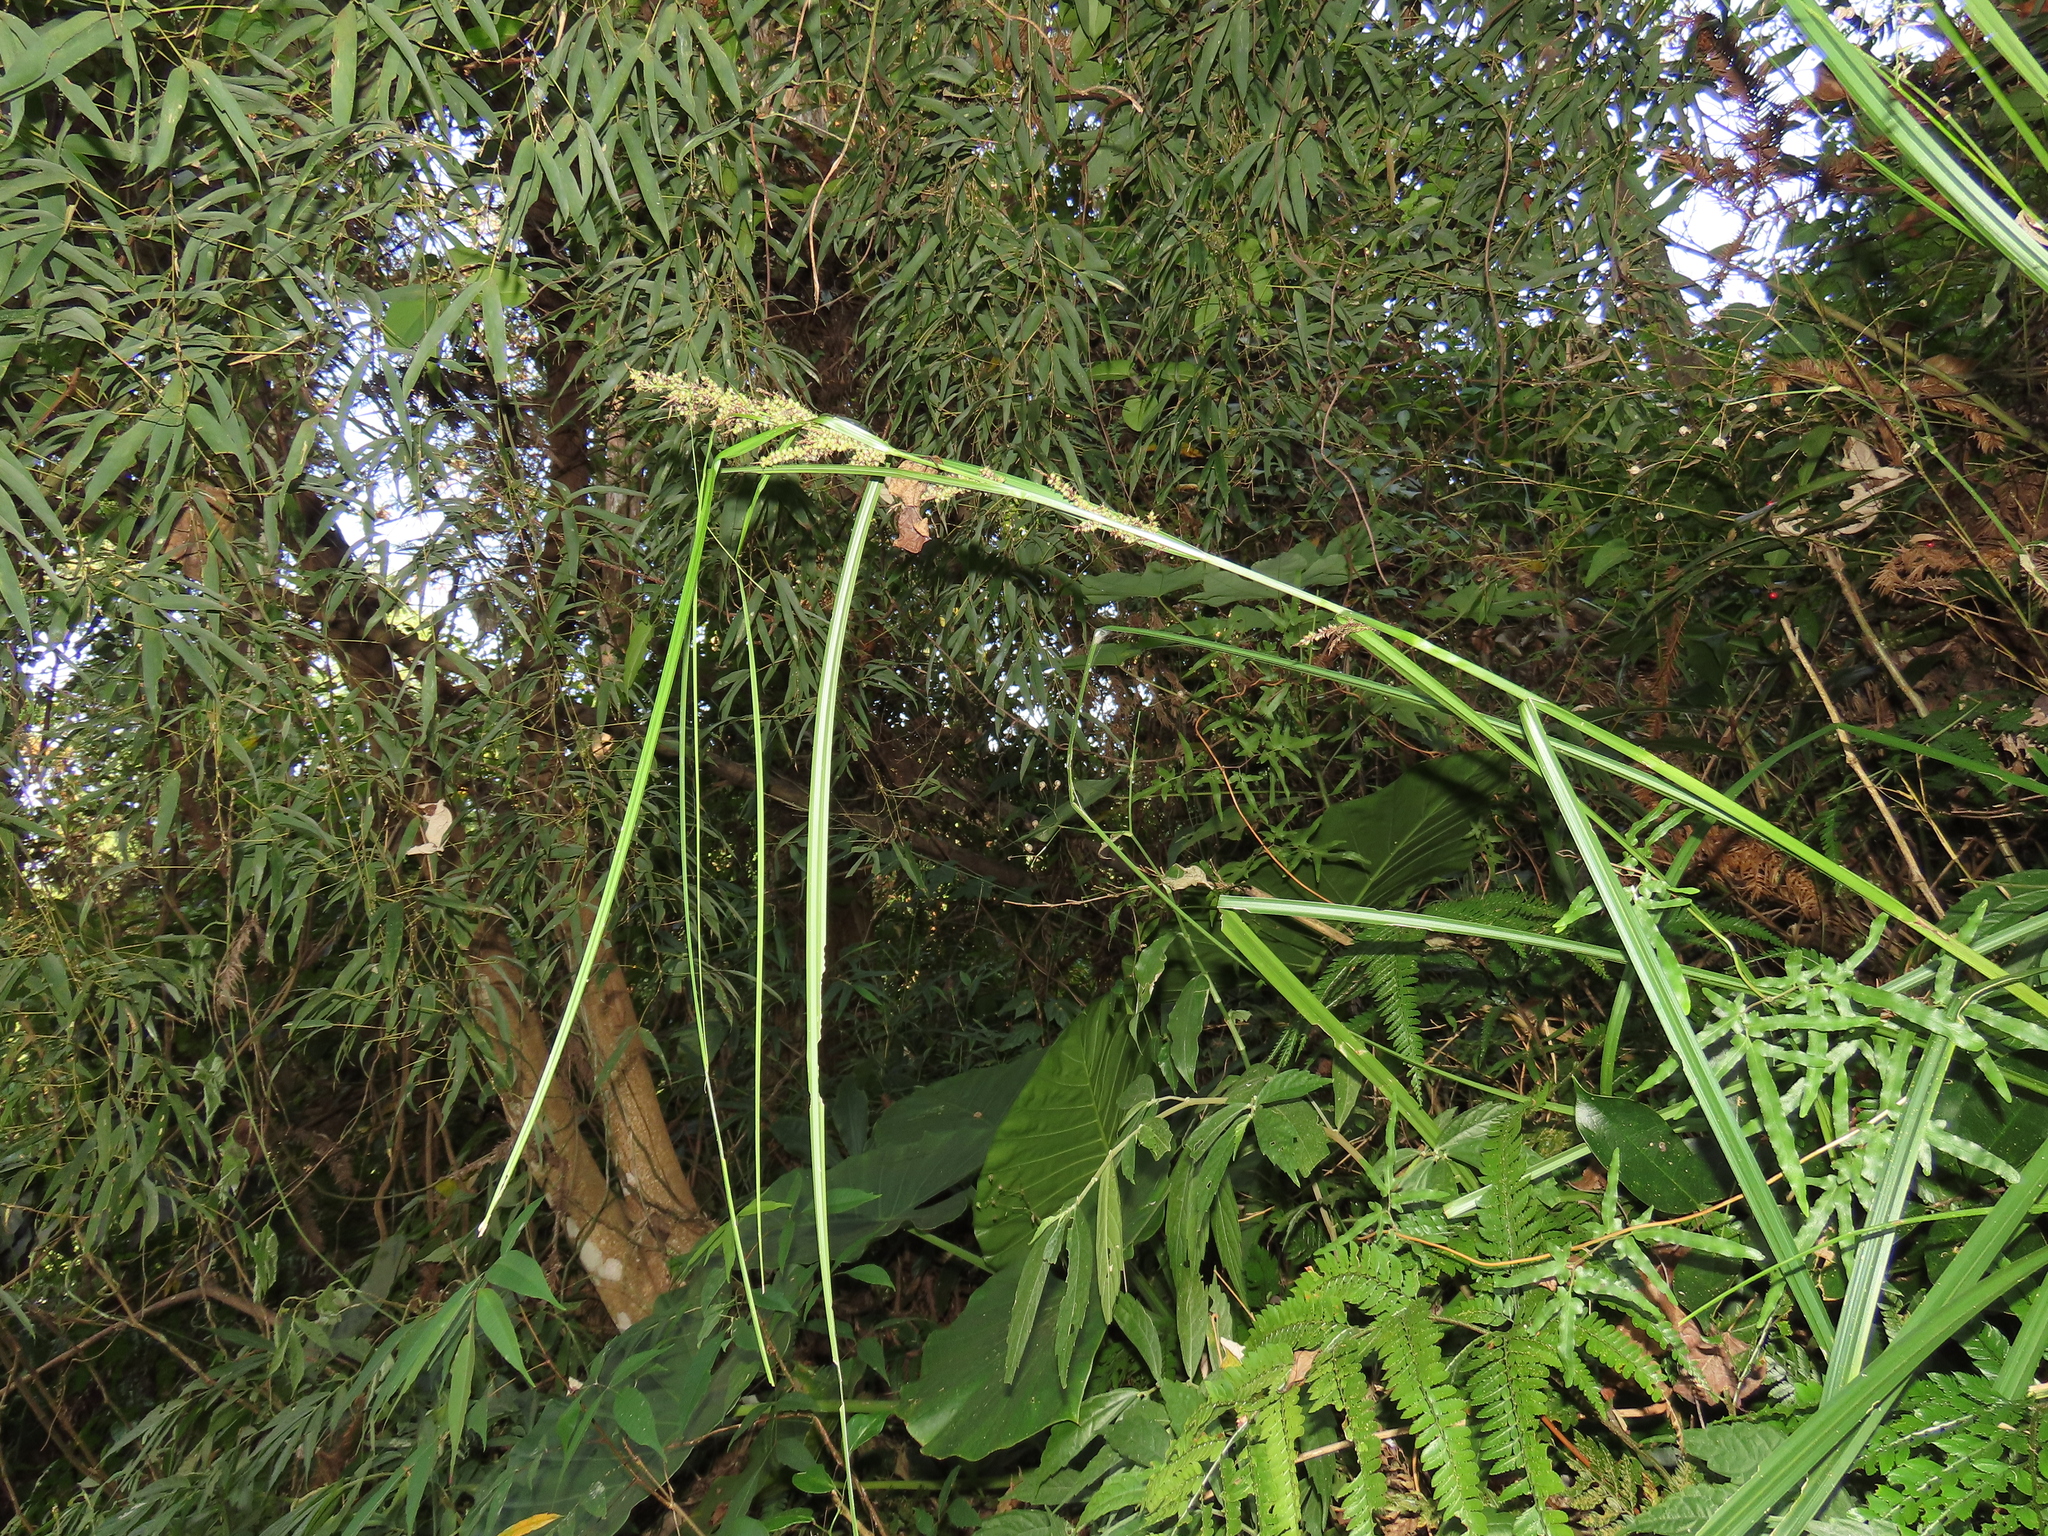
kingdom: Plantae
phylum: Tracheophyta
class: Liliopsida
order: Poales
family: Cyperaceae
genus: Carex
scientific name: Carex baccans
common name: Crimson seeded sedge
